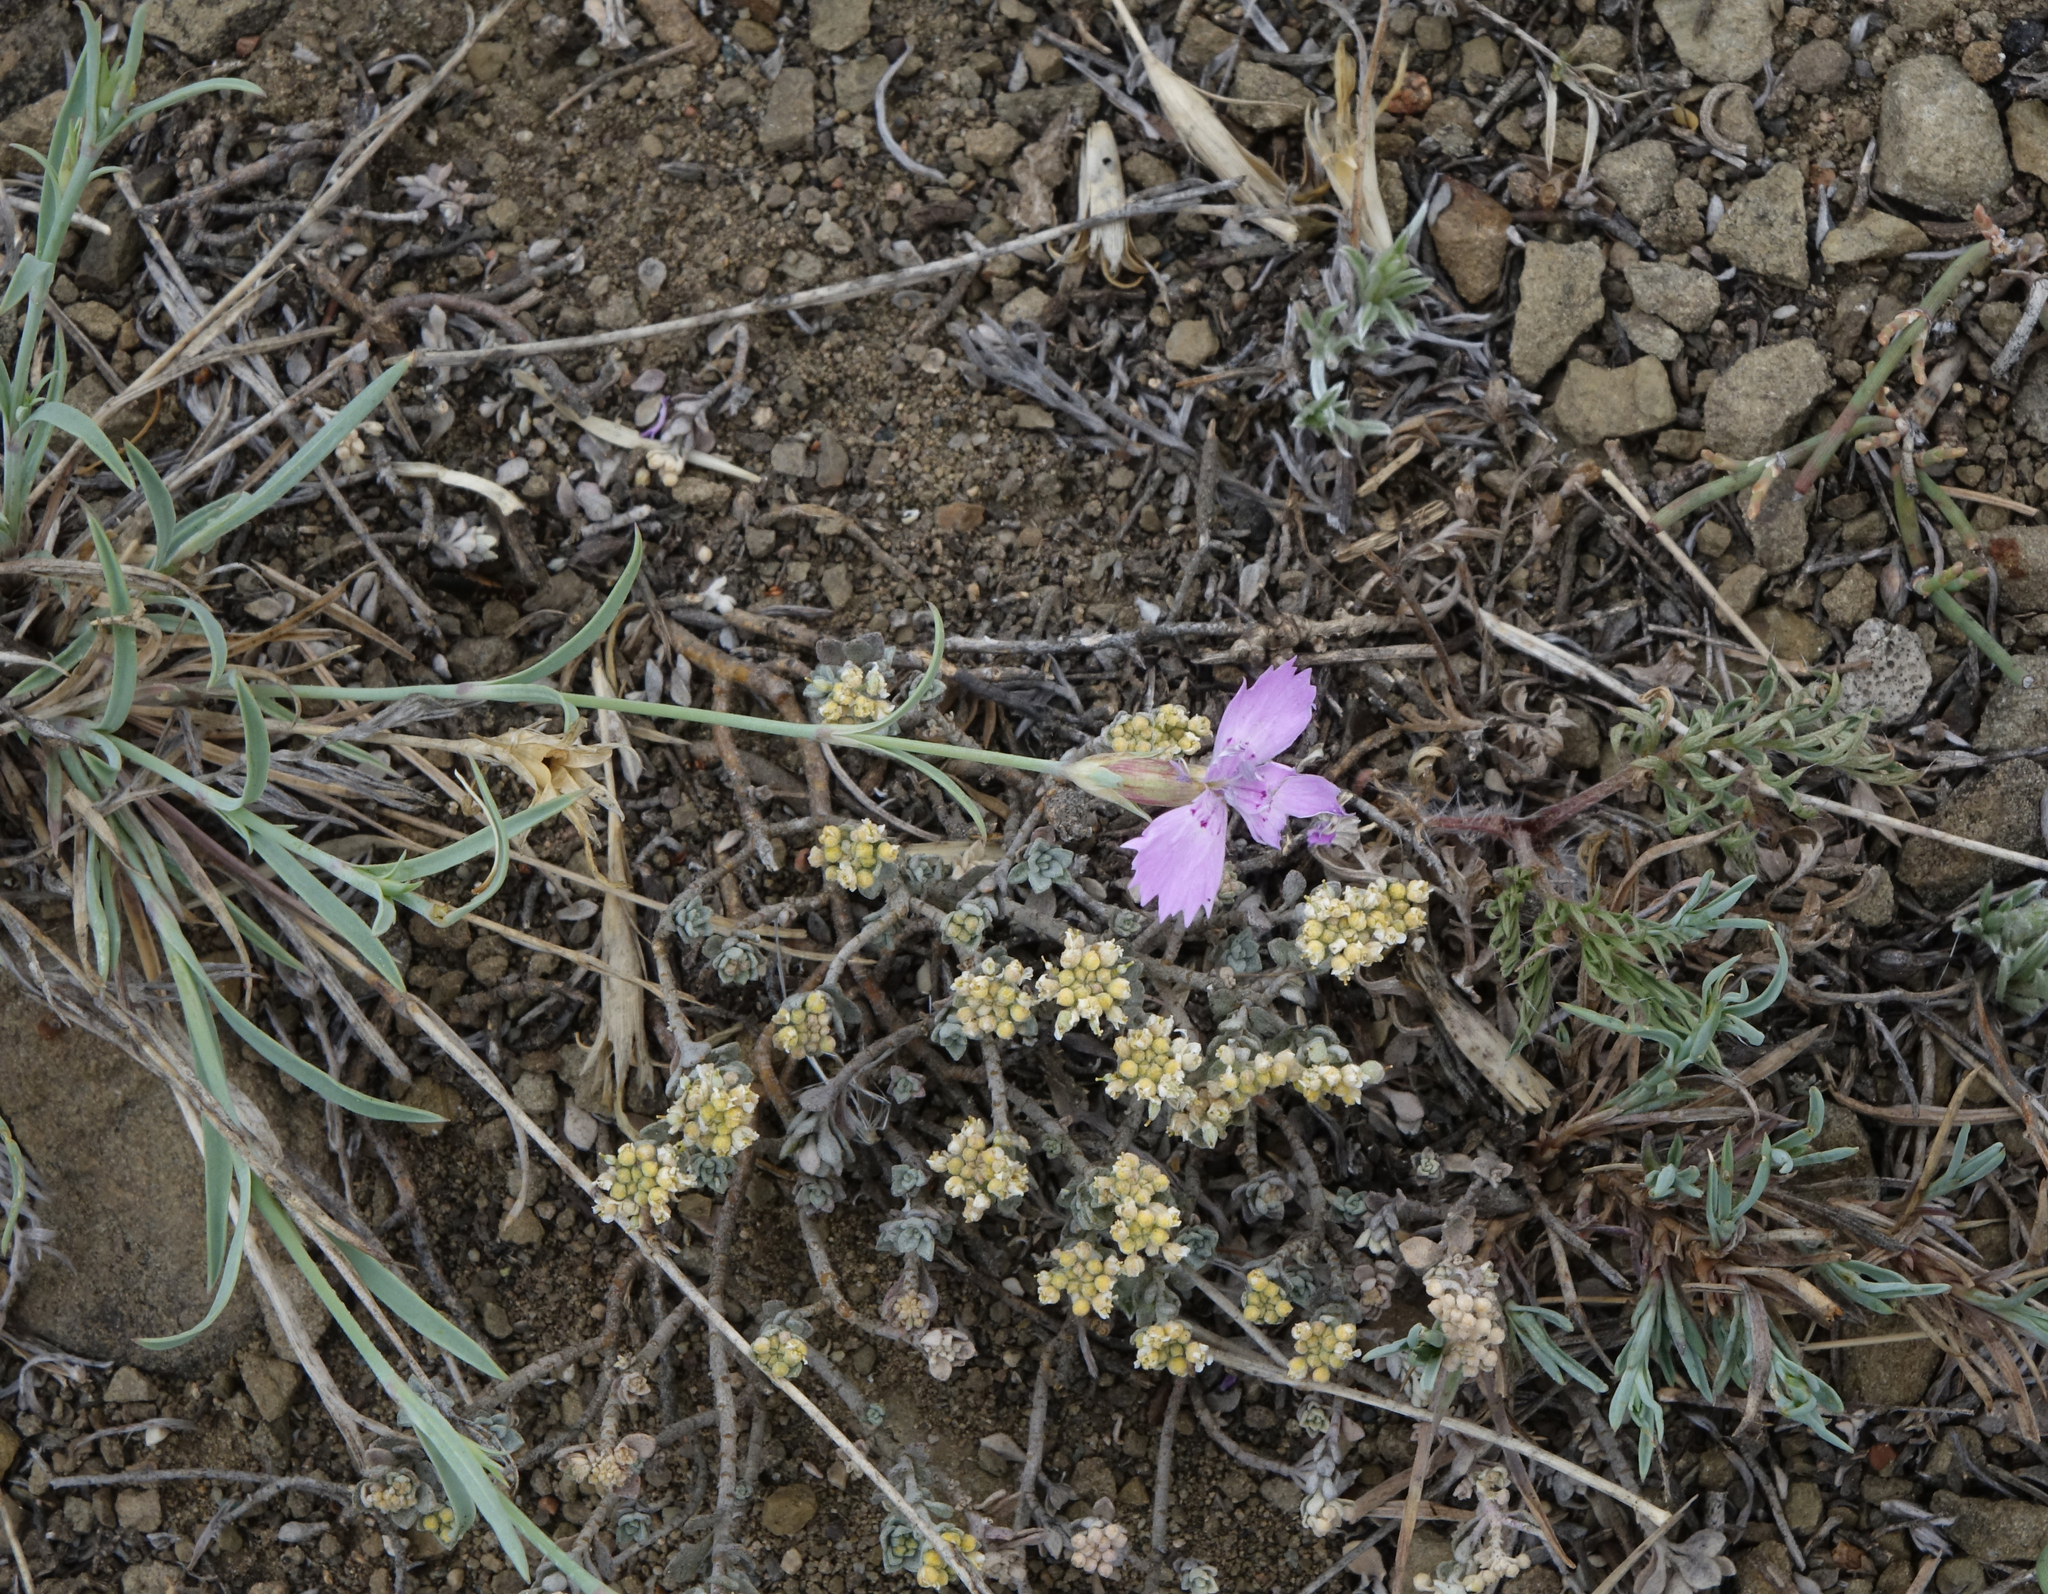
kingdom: Plantae
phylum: Tracheophyta
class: Magnoliopsida
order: Caryophyllales
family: Caryophyllaceae
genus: Dianthus
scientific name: Dianthus chinensis
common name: Rainbow pink
